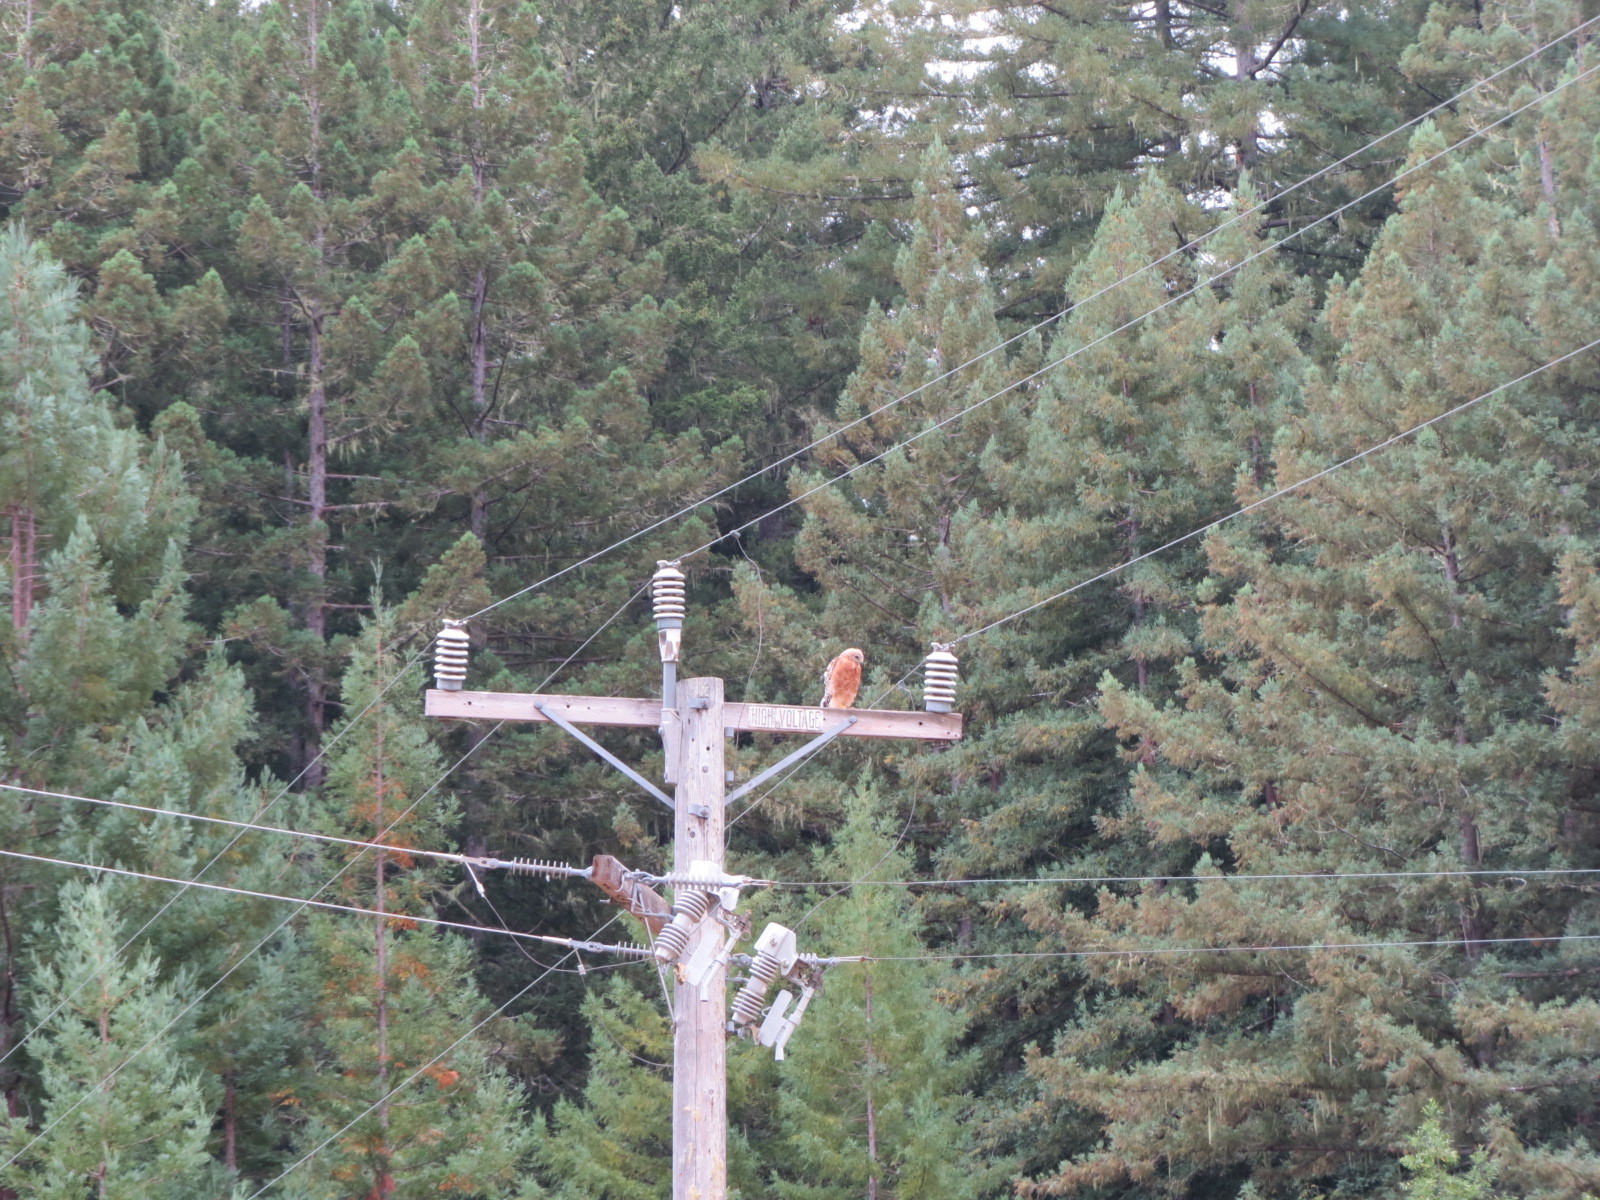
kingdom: Animalia
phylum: Chordata
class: Aves
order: Accipitriformes
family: Accipitridae
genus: Buteo
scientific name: Buteo lineatus
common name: Red-shouldered hawk
